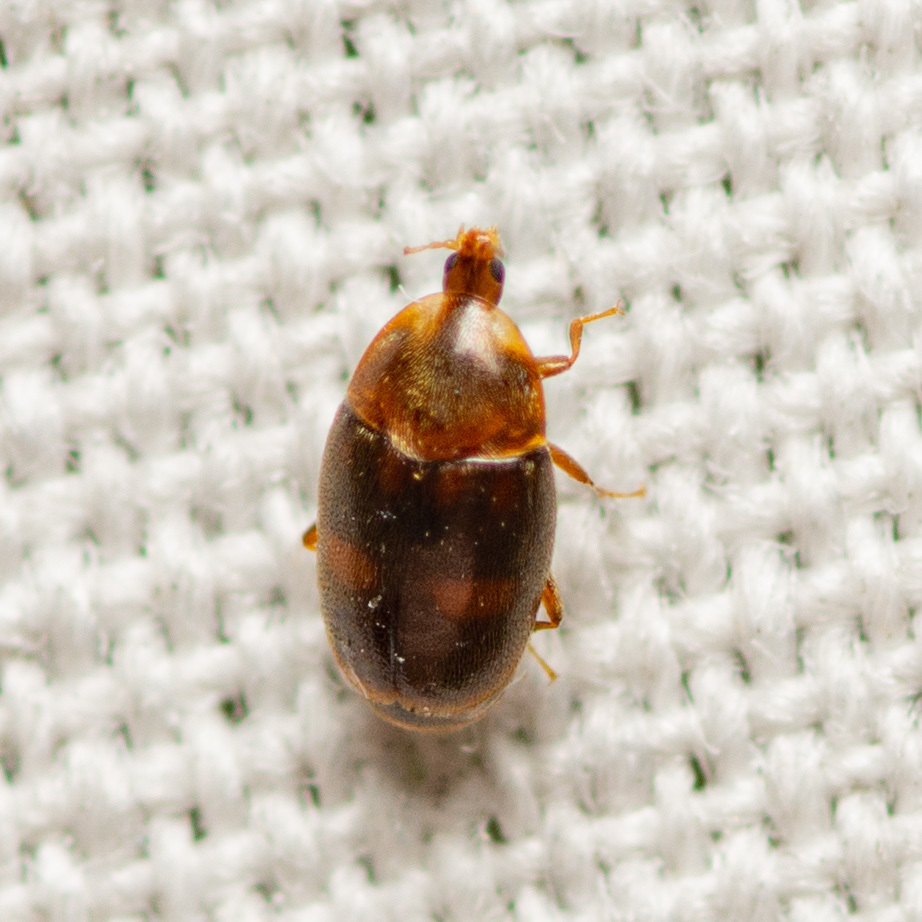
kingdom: Animalia
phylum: Arthropoda
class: Insecta
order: Coleoptera
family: Corylophidae
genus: Clypastraea
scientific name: Clypastraea lepida
